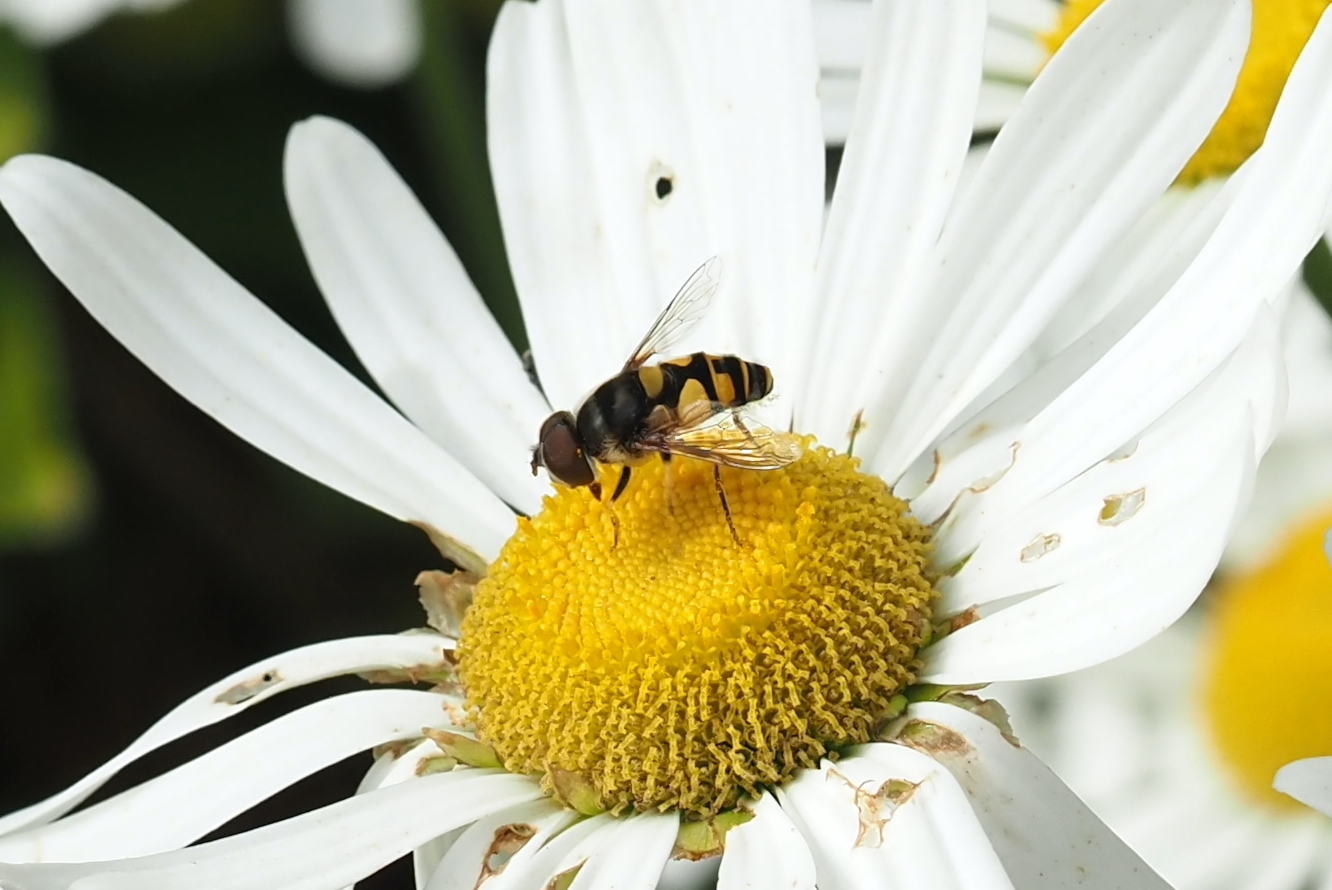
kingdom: Animalia
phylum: Arthropoda
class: Insecta
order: Diptera
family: Syrphidae
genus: Eristalis
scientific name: Eristalis transversa
